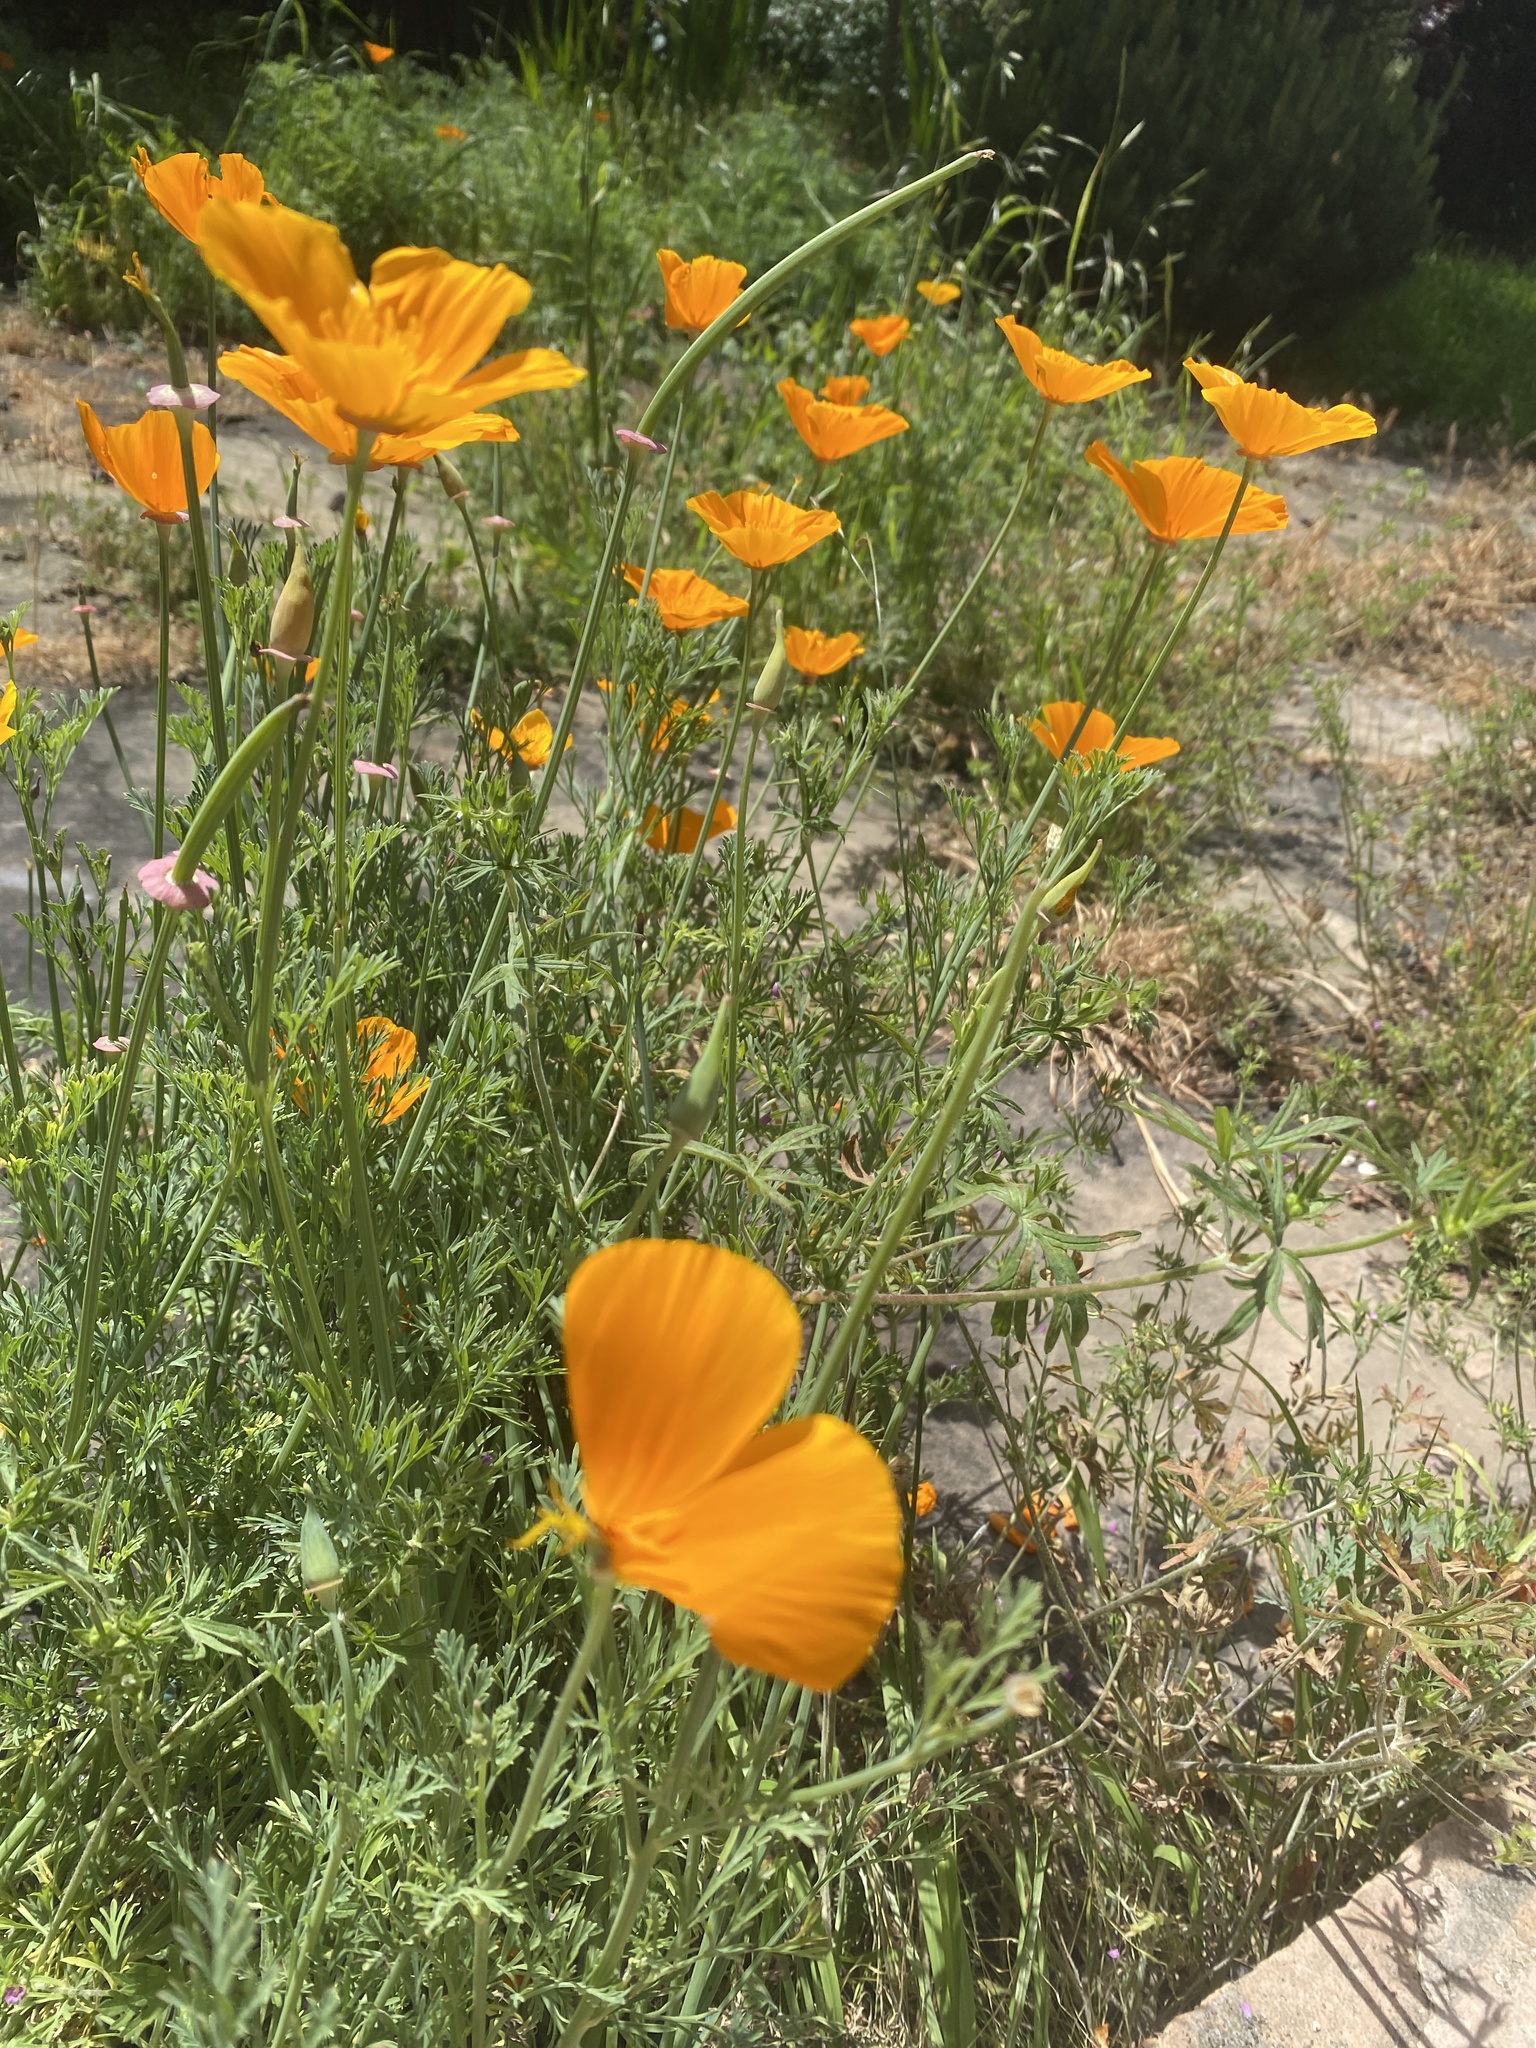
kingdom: Plantae
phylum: Tracheophyta
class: Magnoliopsida
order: Ranunculales
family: Papaveraceae
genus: Eschscholzia
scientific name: Eschscholzia californica
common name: California poppy
